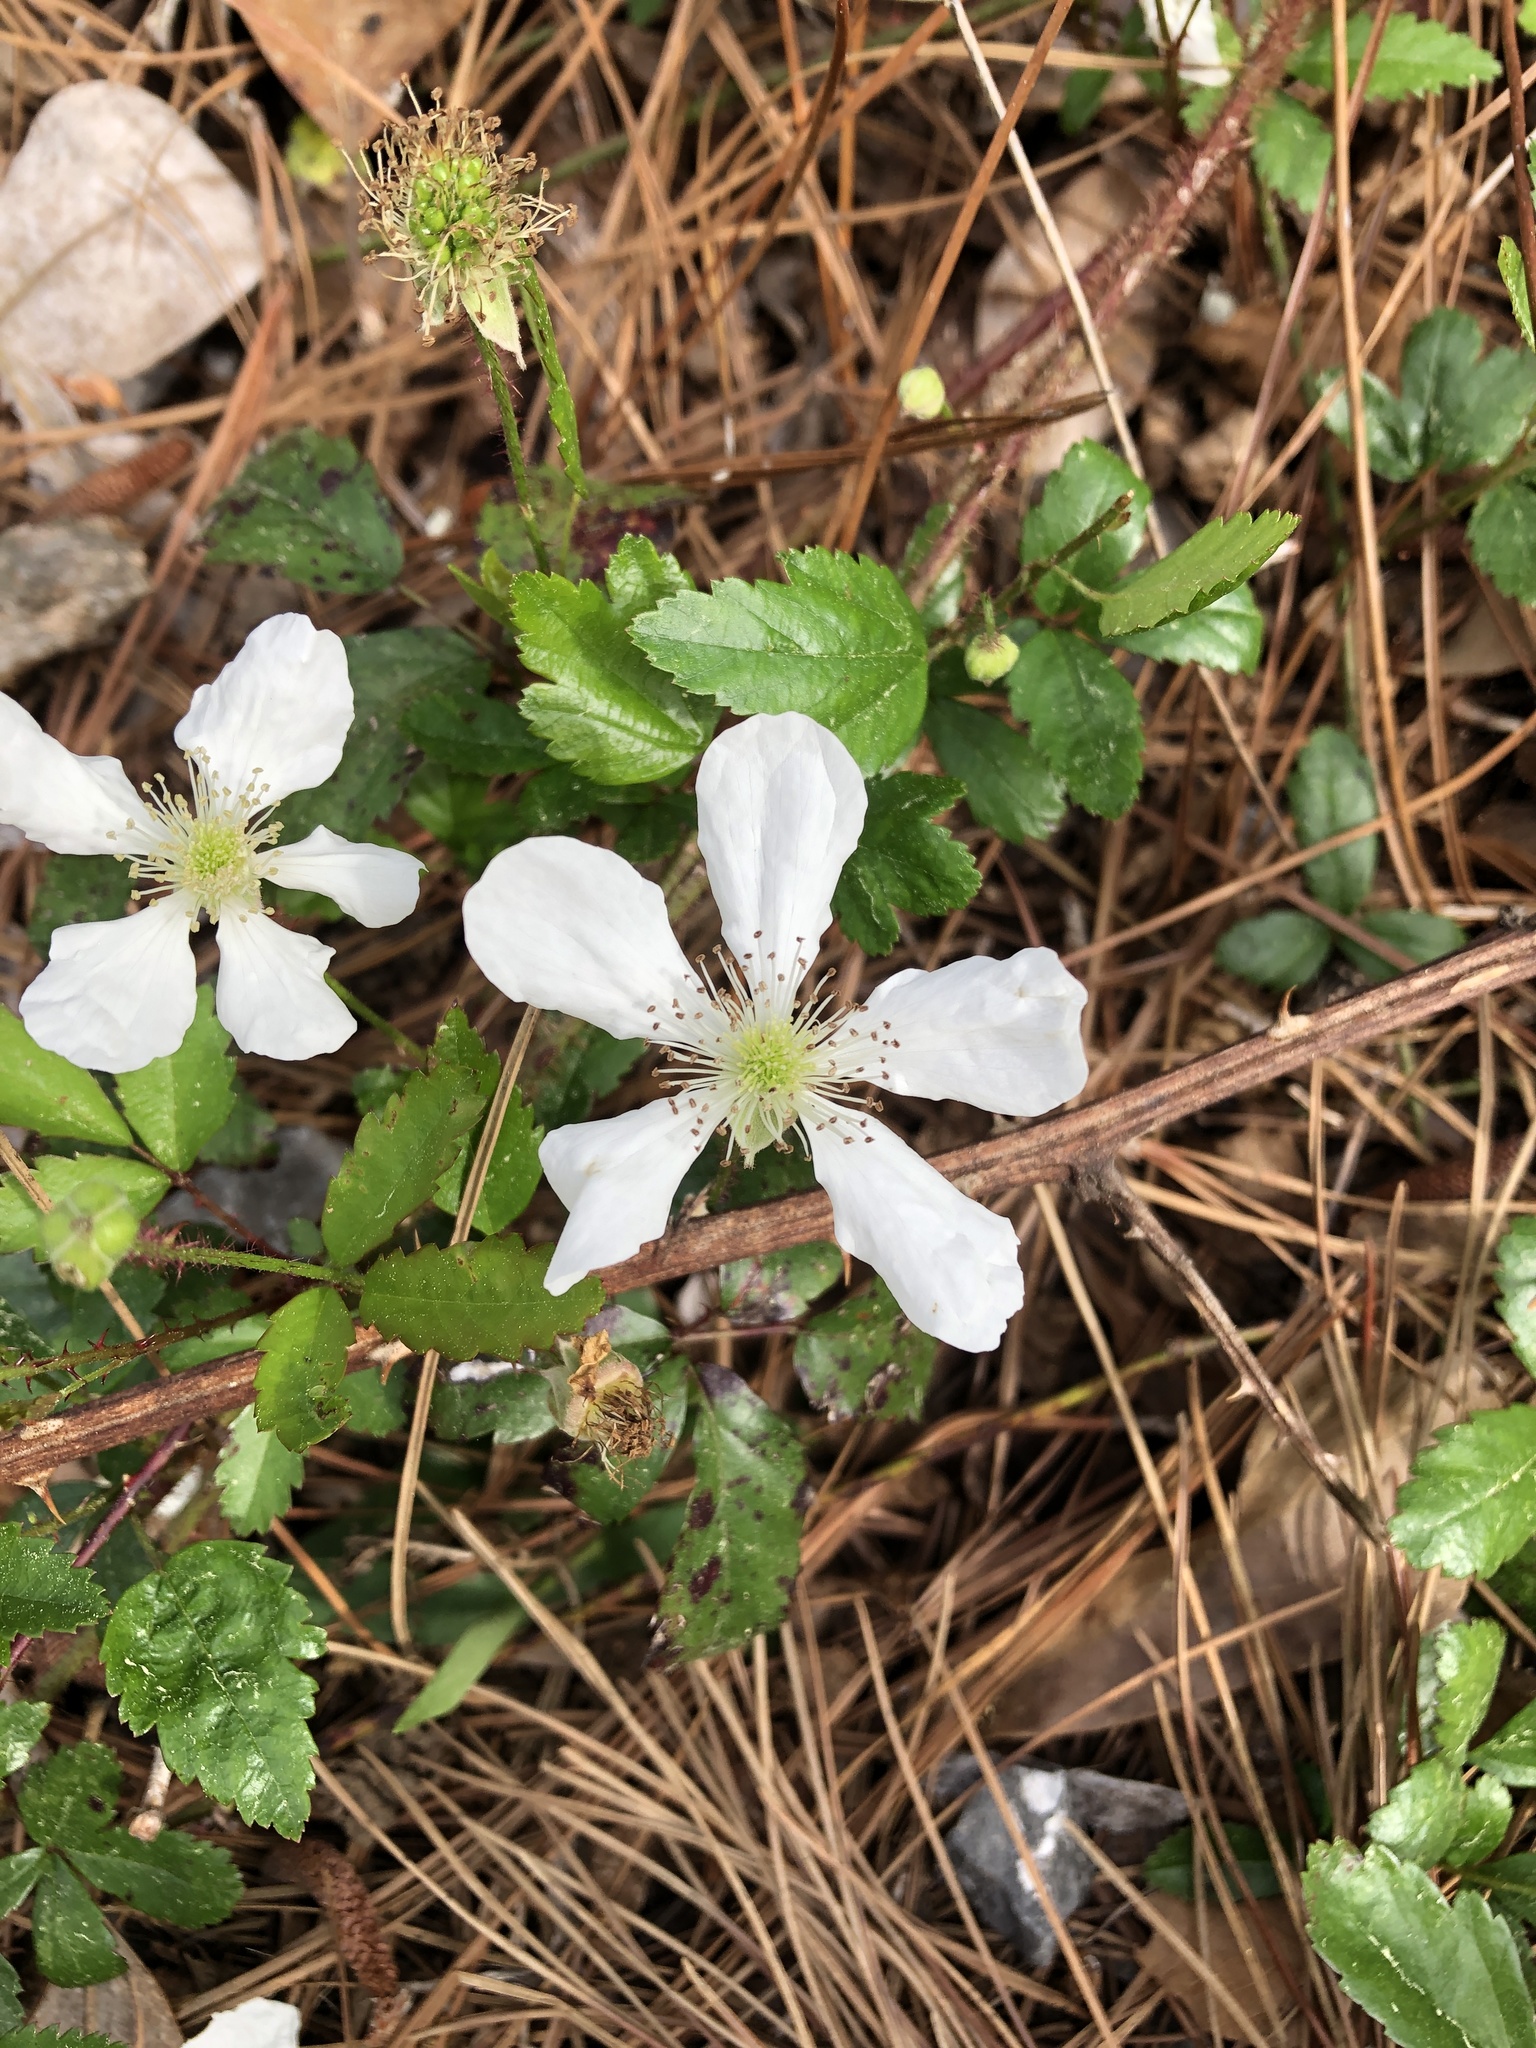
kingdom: Plantae
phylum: Tracheophyta
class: Magnoliopsida
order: Rosales
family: Rosaceae
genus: Rubus
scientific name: Rubus trivialis
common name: Southern dewberry
